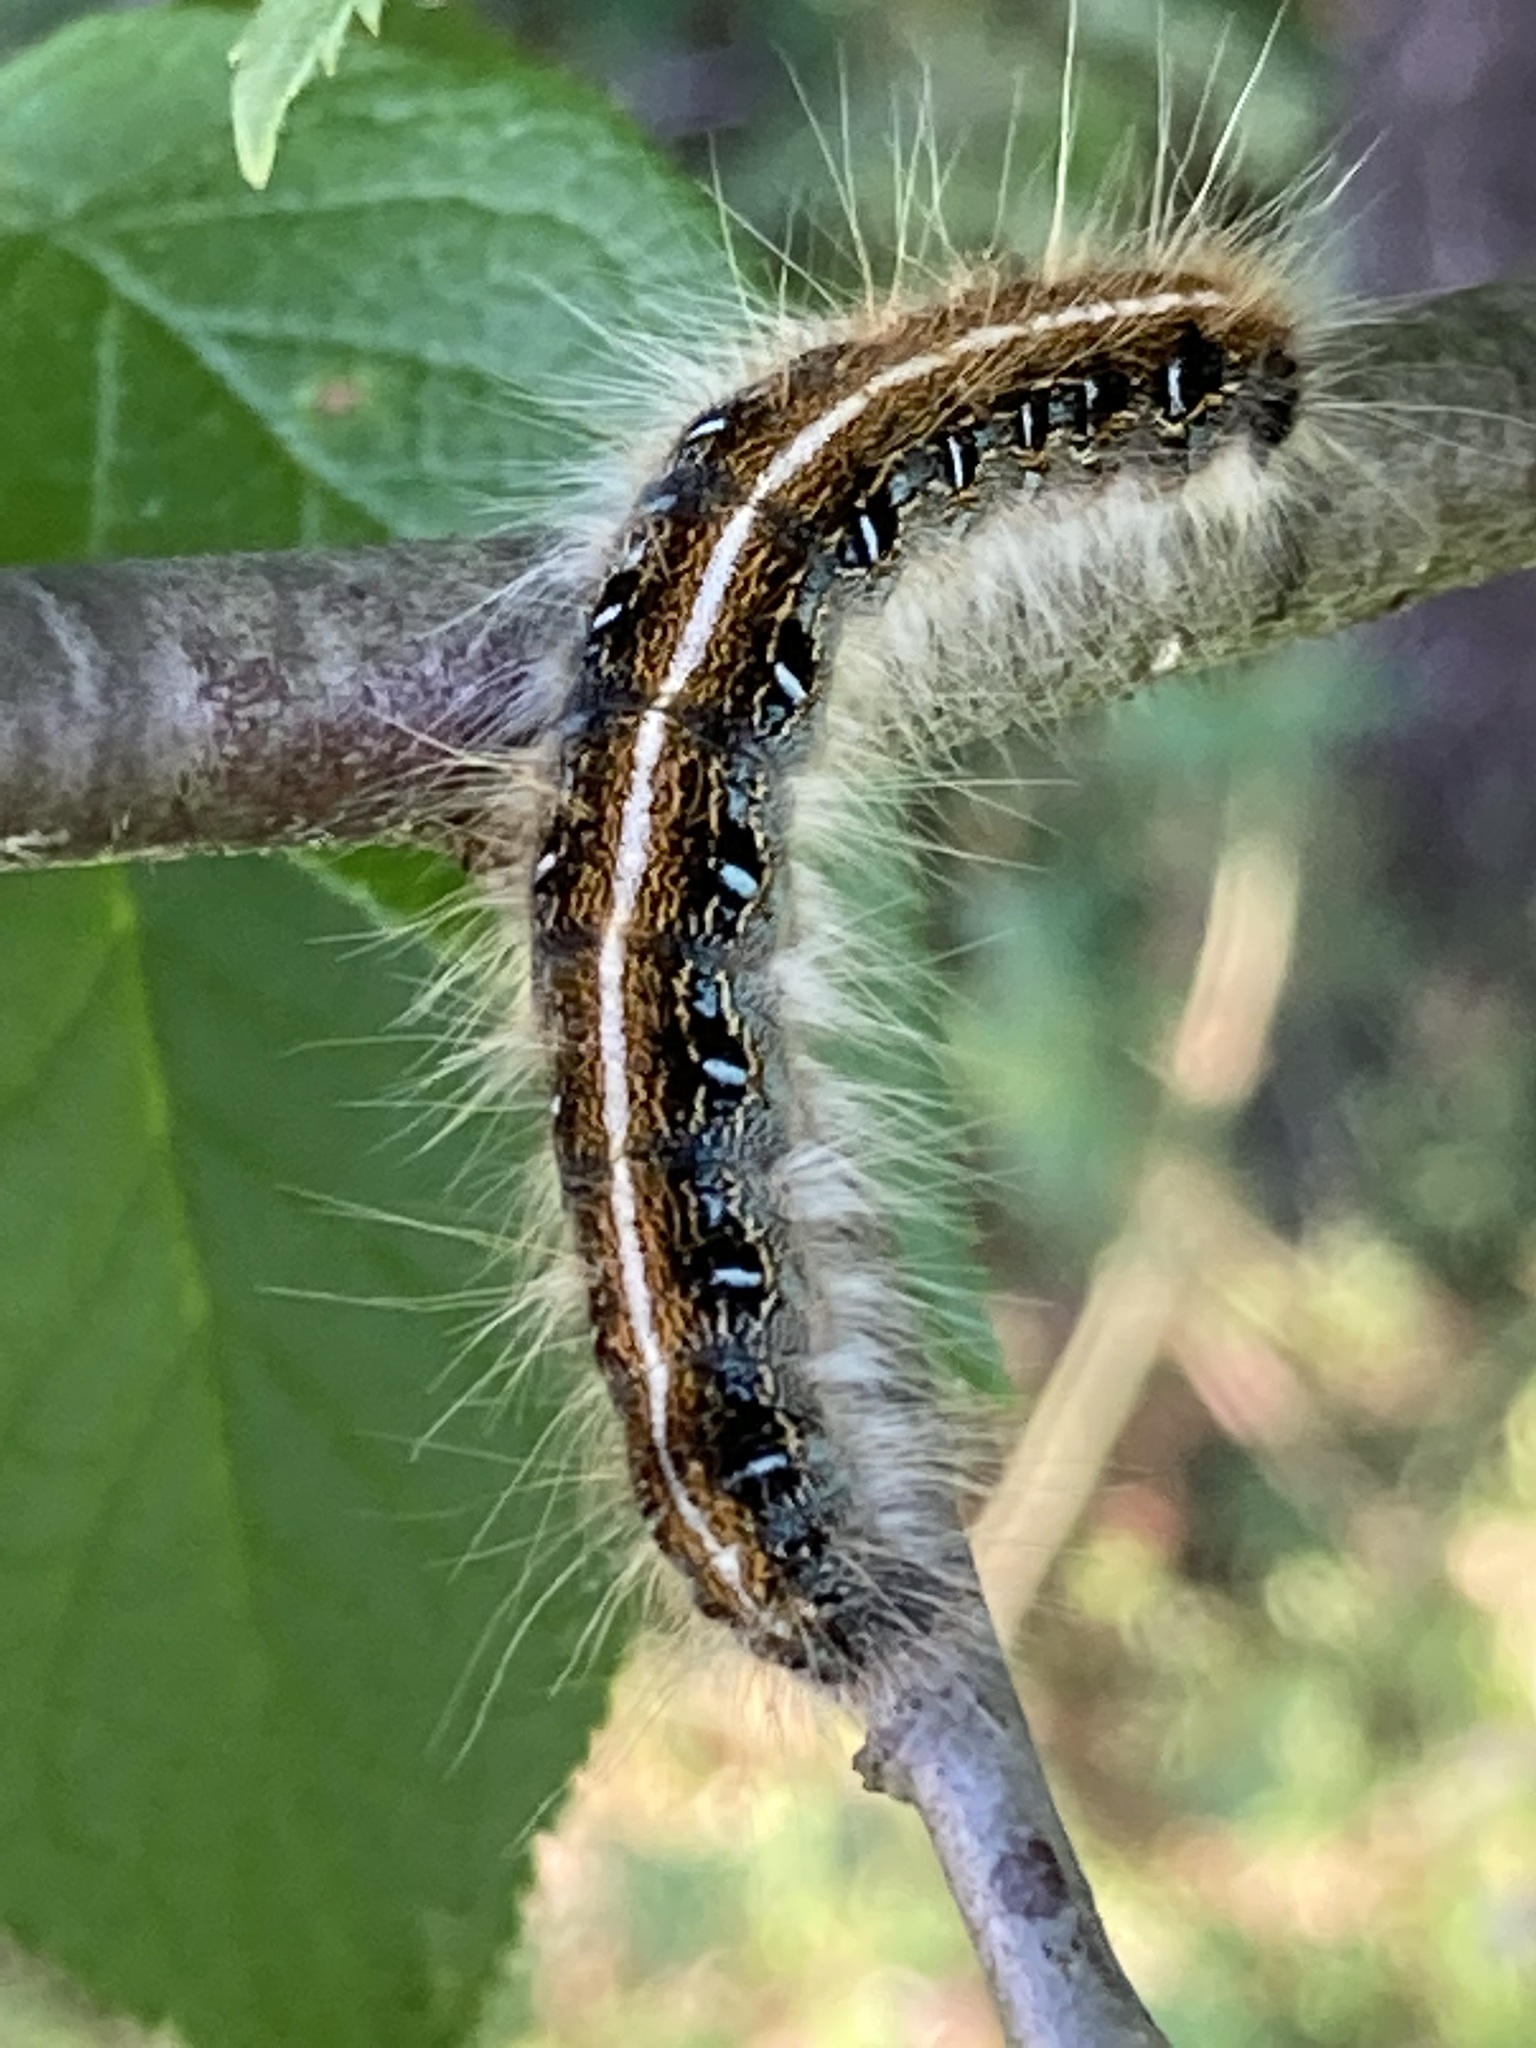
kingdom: Animalia
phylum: Arthropoda
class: Insecta
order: Lepidoptera
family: Lasiocampidae
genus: Malacosoma
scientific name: Malacosoma americana
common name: Eastern tent caterpillar moth
